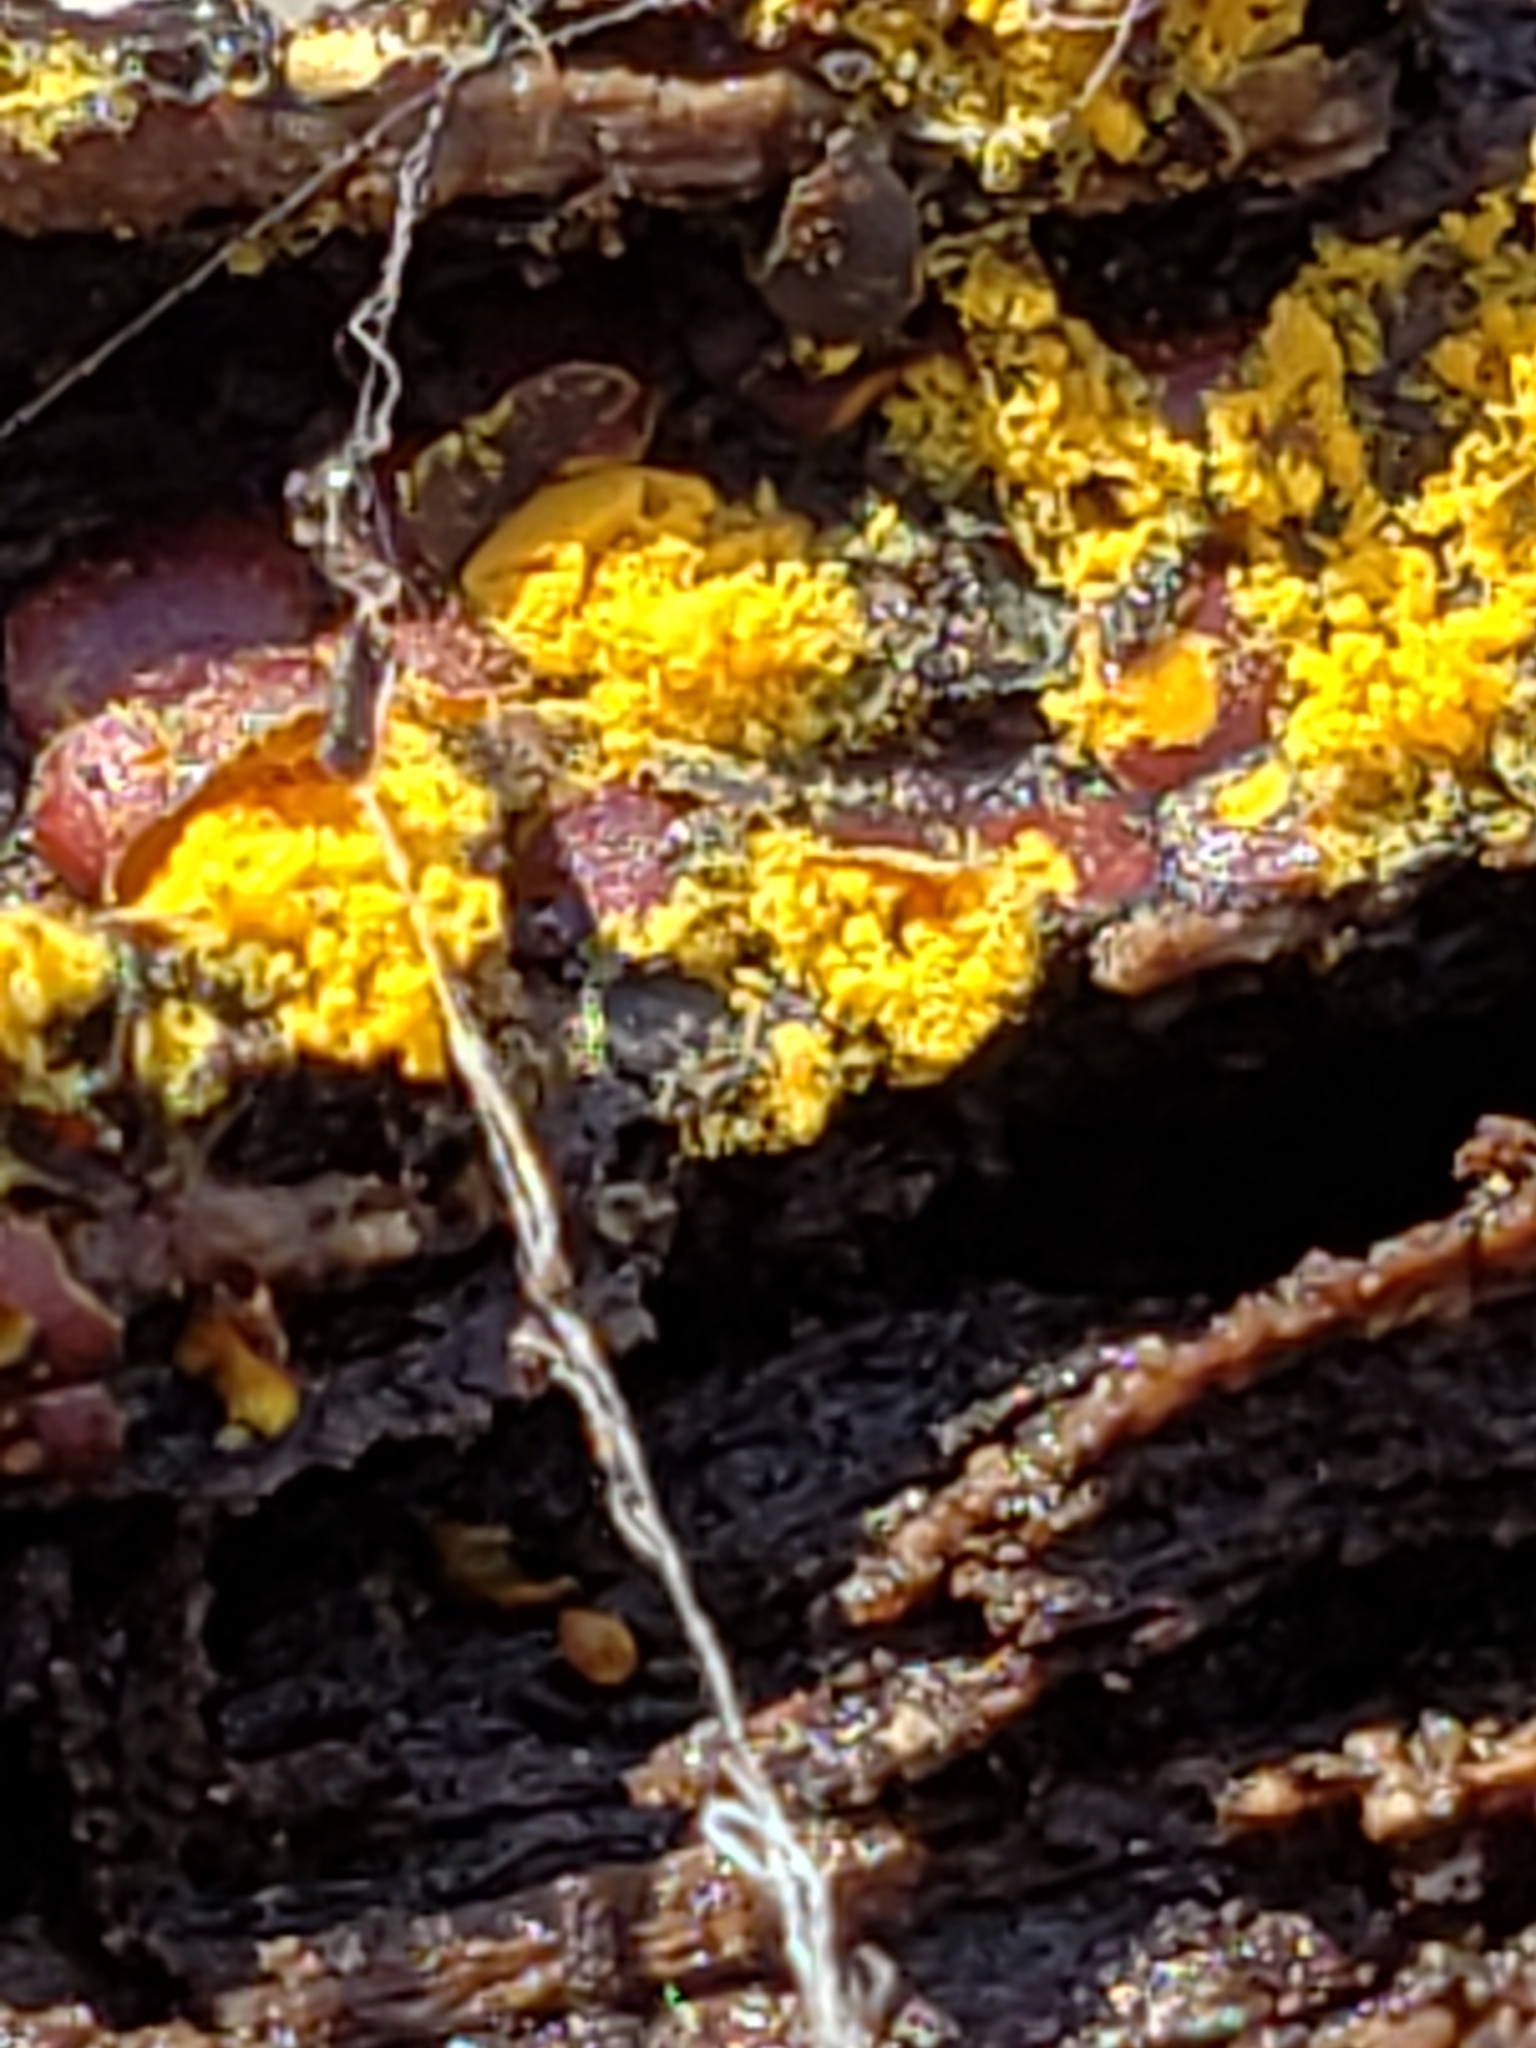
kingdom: Protozoa
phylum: Mycetozoa
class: Myxomycetes
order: Trichiales
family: Trichiaceae
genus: Perichaena
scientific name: Perichaena depressa
